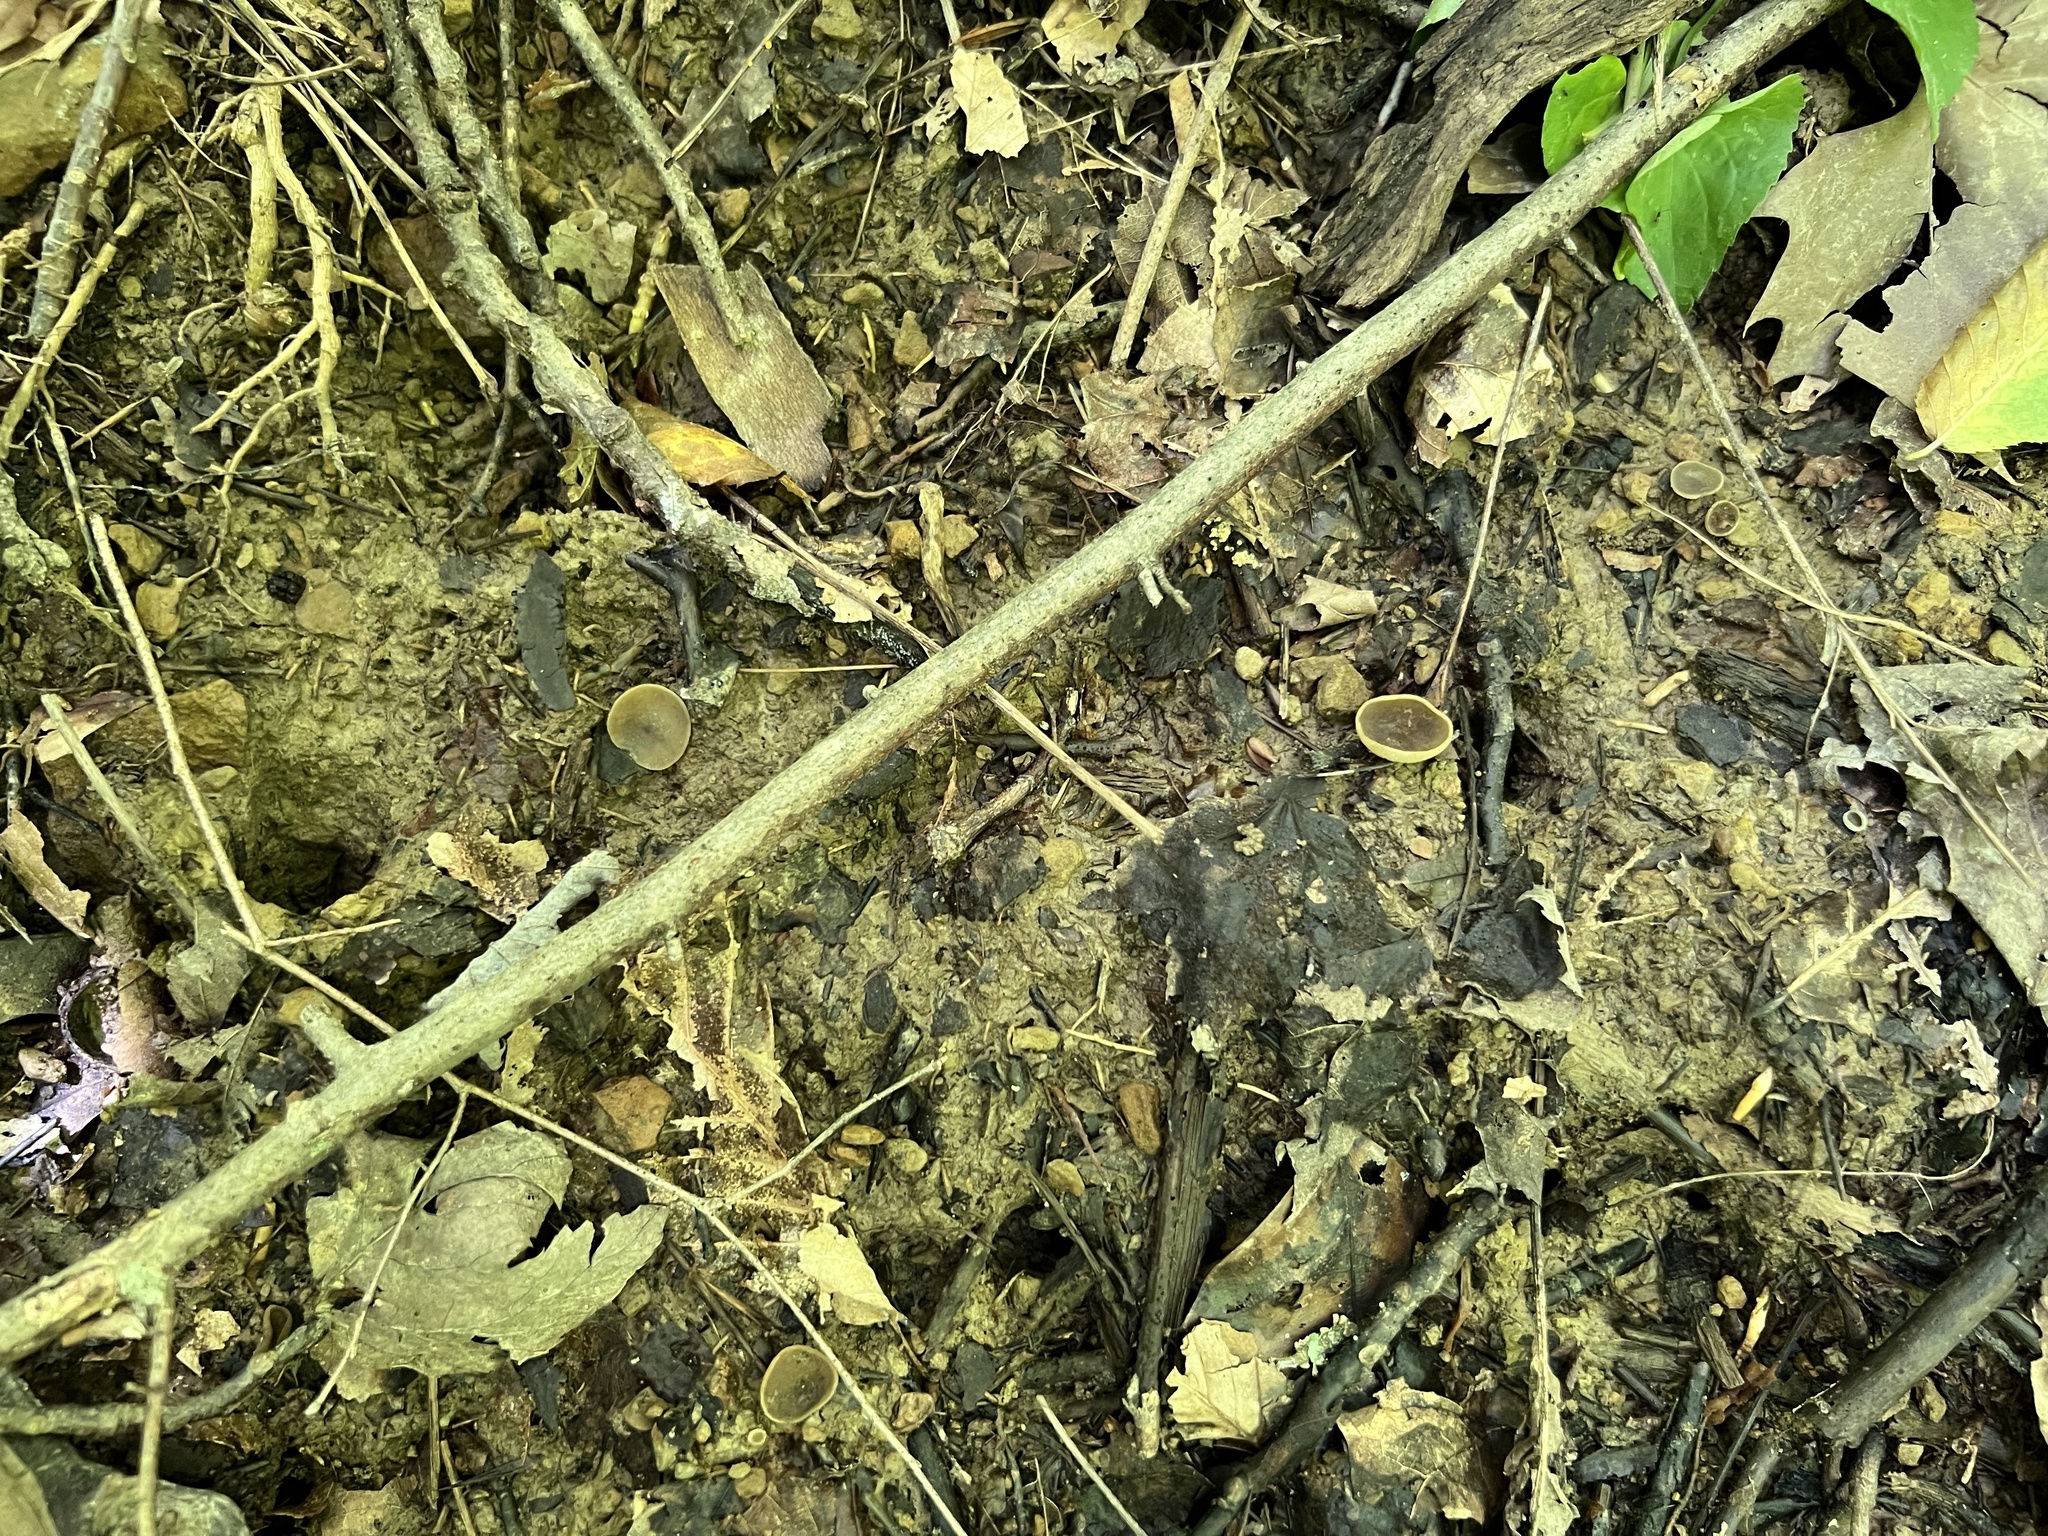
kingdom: Fungi
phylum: Ascomycota
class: Pezizomycetes
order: Pezizales
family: Pezizaceae
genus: Paragalactinia
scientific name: Paragalactinia succosa
